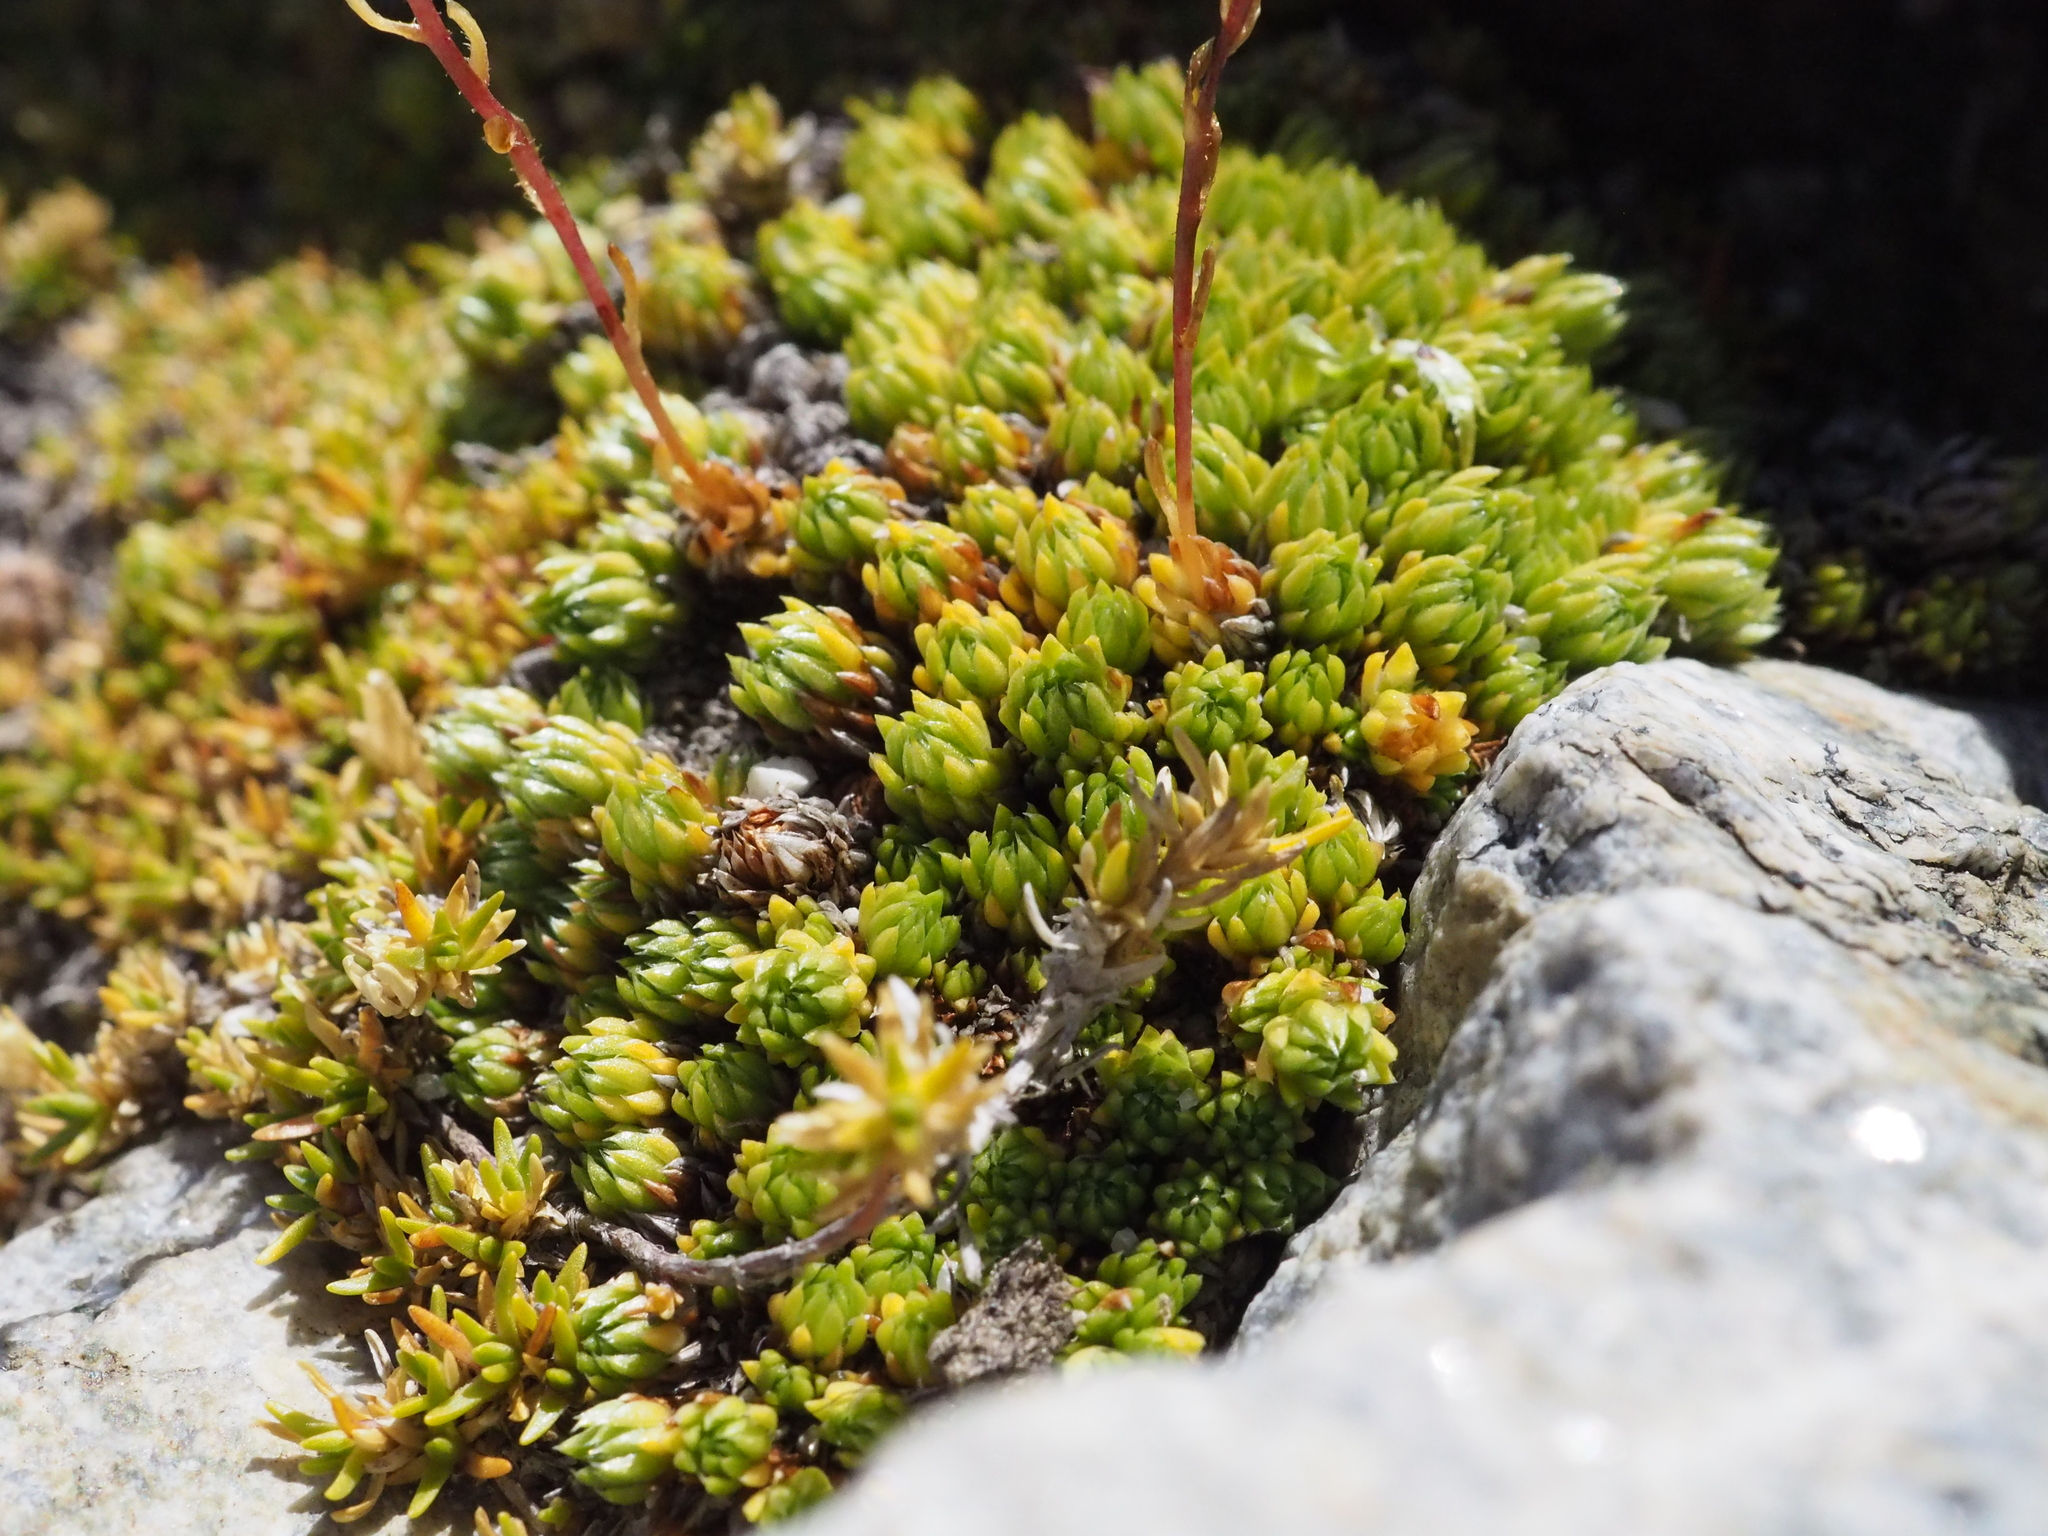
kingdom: Plantae
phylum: Tracheophyta
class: Magnoliopsida
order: Saxifragales
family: Saxifragaceae
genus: Saxifraga
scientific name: Saxifraga bryoides
